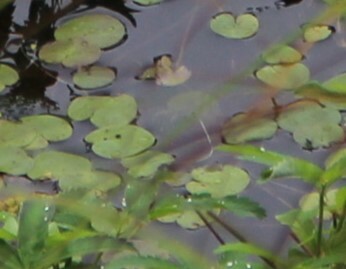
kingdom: Plantae
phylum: Tracheophyta
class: Liliopsida
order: Alismatales
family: Hydrocharitaceae
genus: Hydrocharis
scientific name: Hydrocharis morsus-ranae
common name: Frogbit
